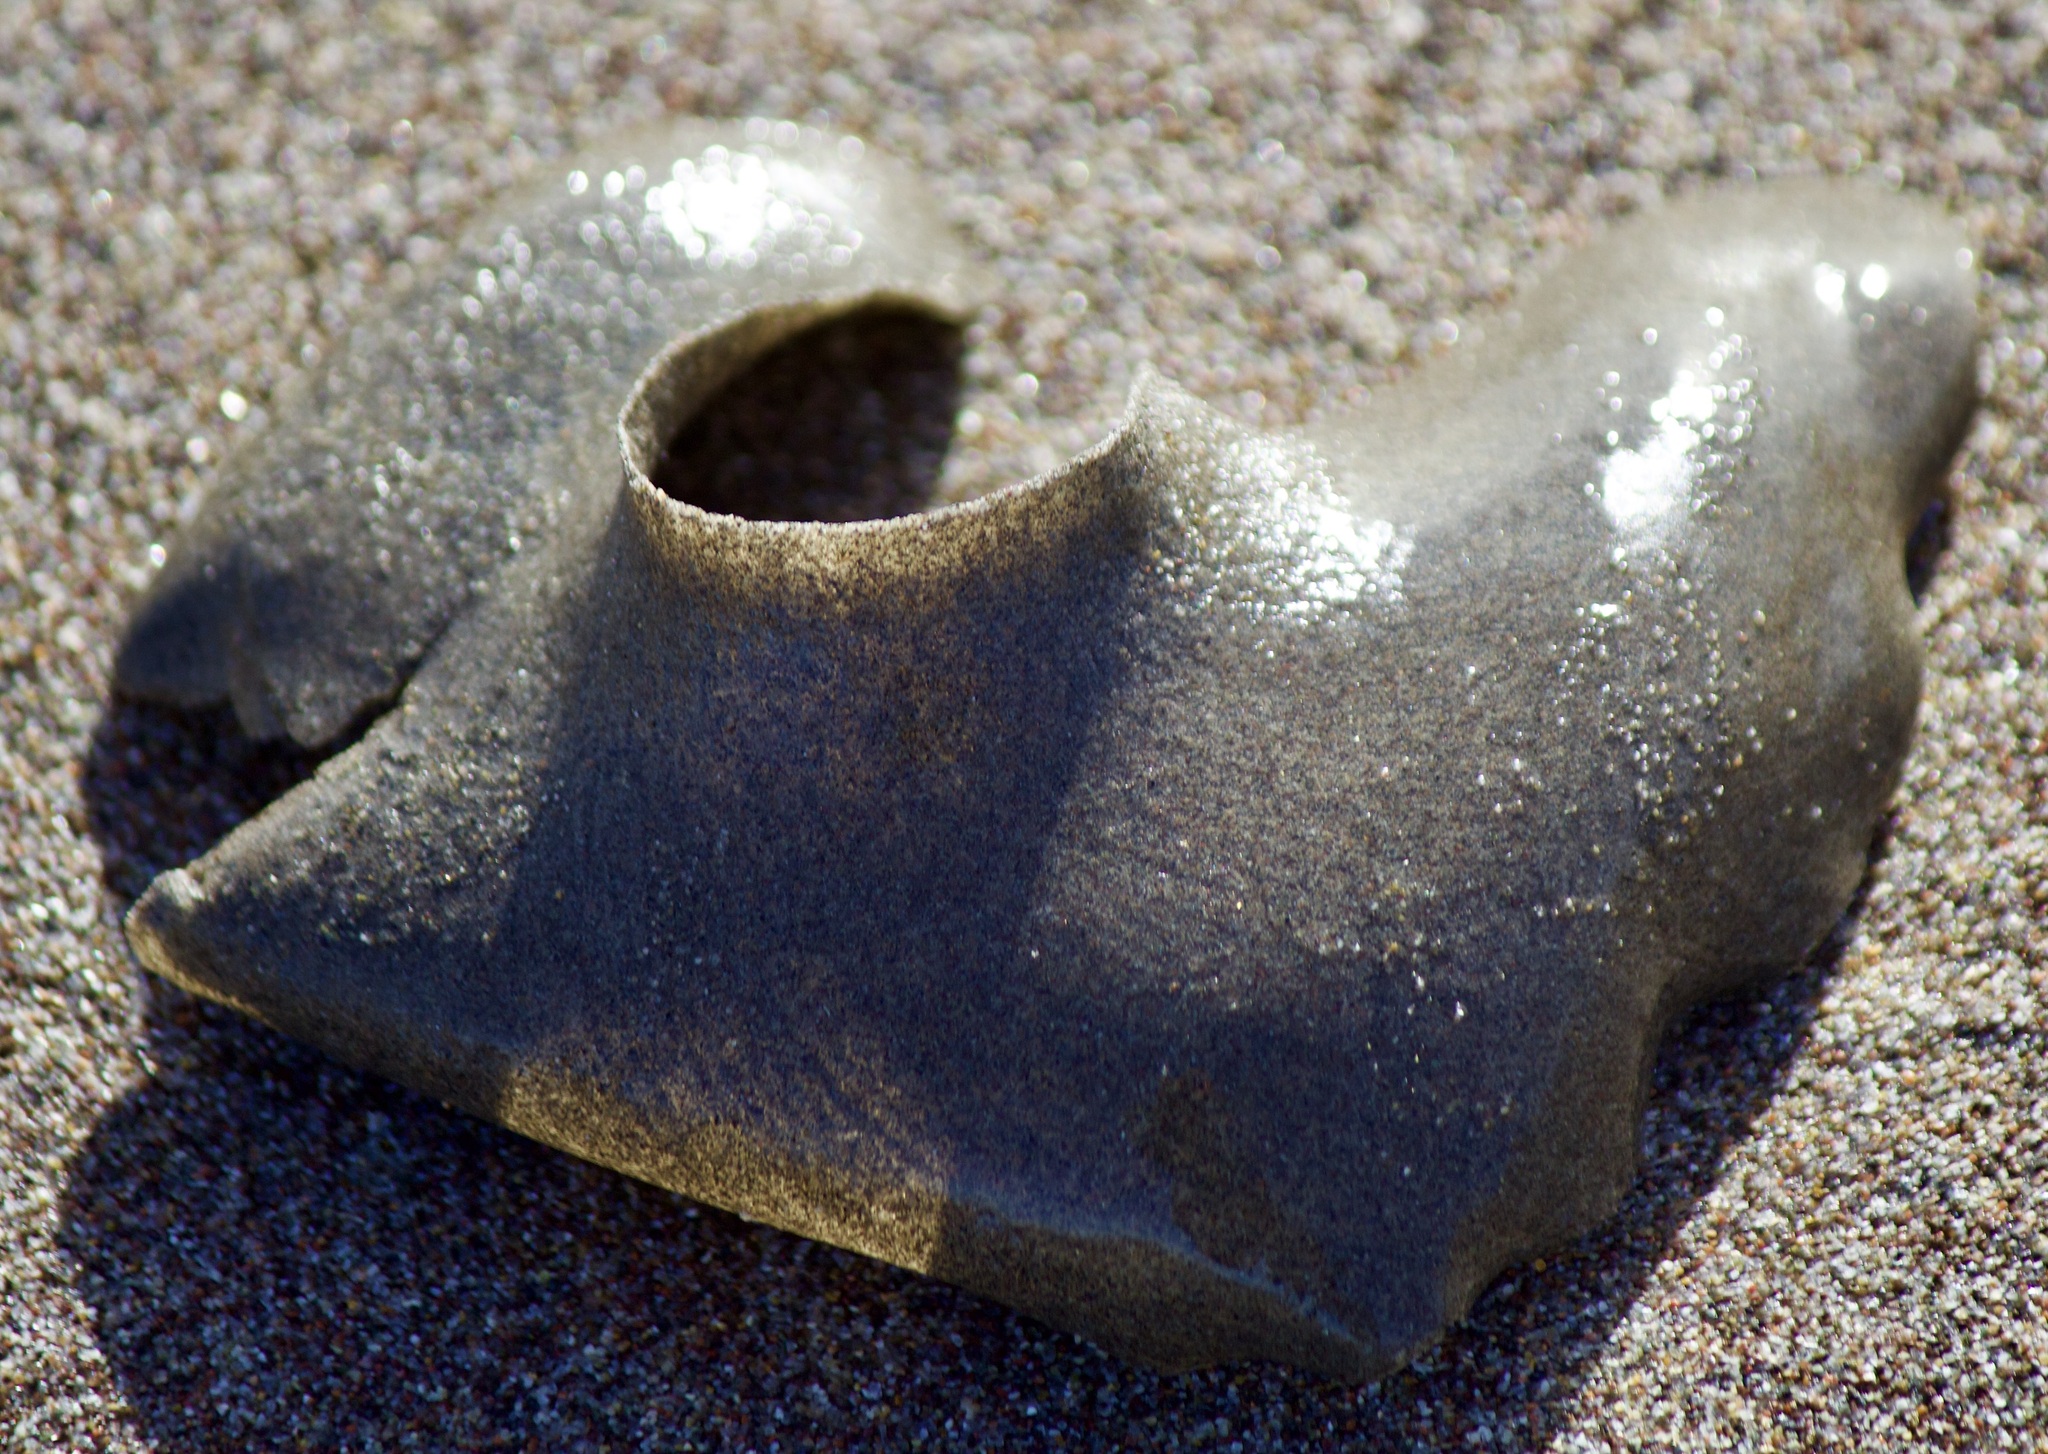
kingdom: Animalia
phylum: Mollusca
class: Gastropoda
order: Littorinimorpha
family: Naticidae
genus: Sinum
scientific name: Sinum cymba
